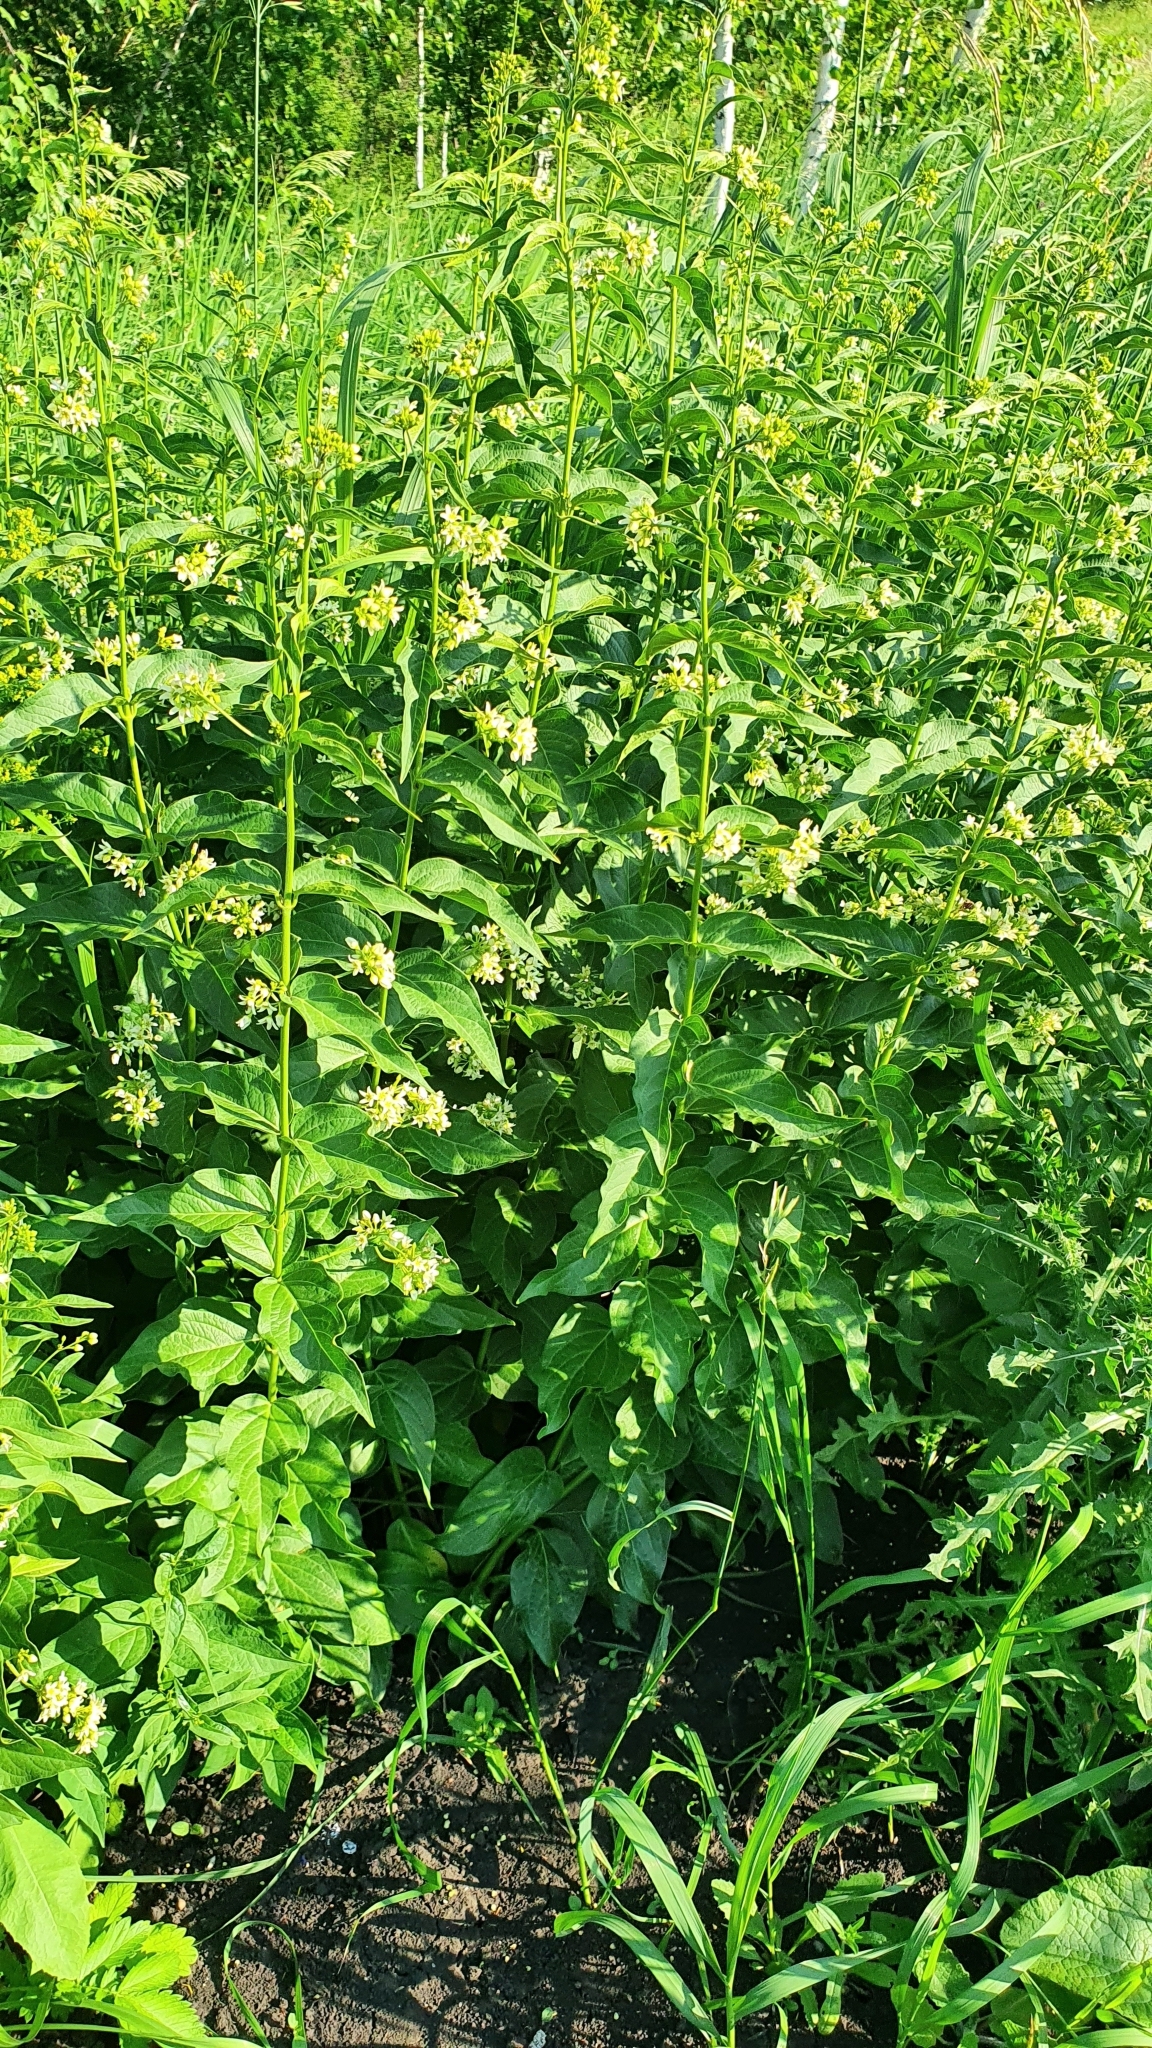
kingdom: Plantae
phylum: Tracheophyta
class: Magnoliopsida
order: Gentianales
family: Apocynaceae
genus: Vincetoxicum
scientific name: Vincetoxicum hirundinaria
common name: White swallowwort
